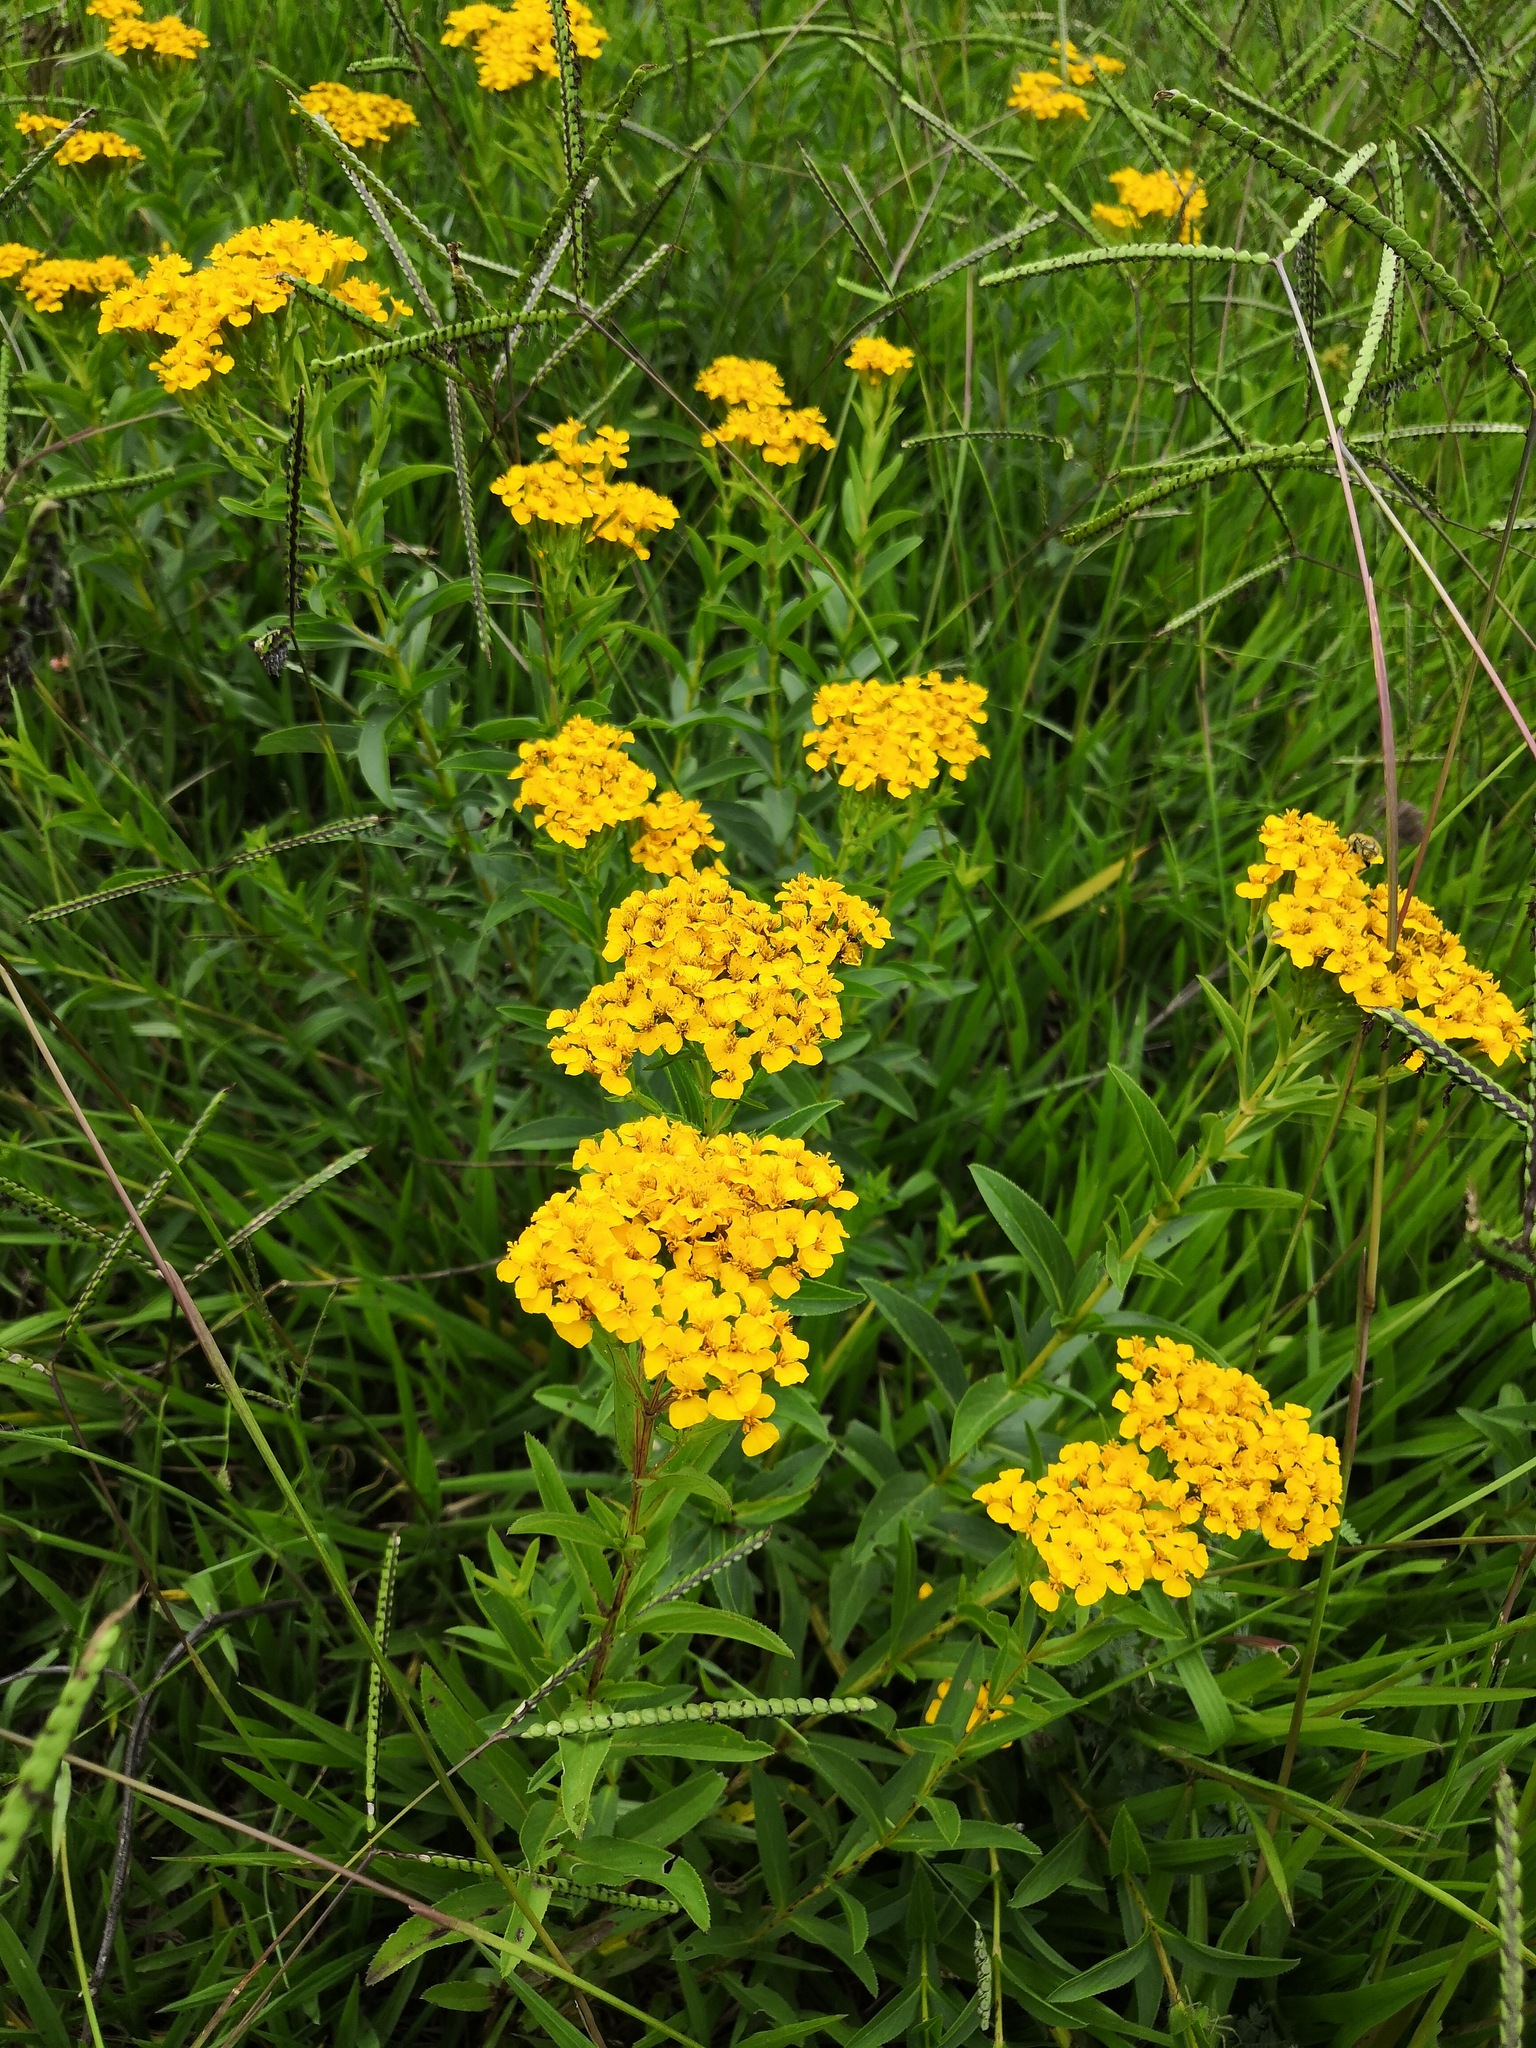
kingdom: Plantae
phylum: Tracheophyta
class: Magnoliopsida
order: Asterales
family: Asteraceae
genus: Tagetes
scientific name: Tagetes lucida
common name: Sweetscented marigold
